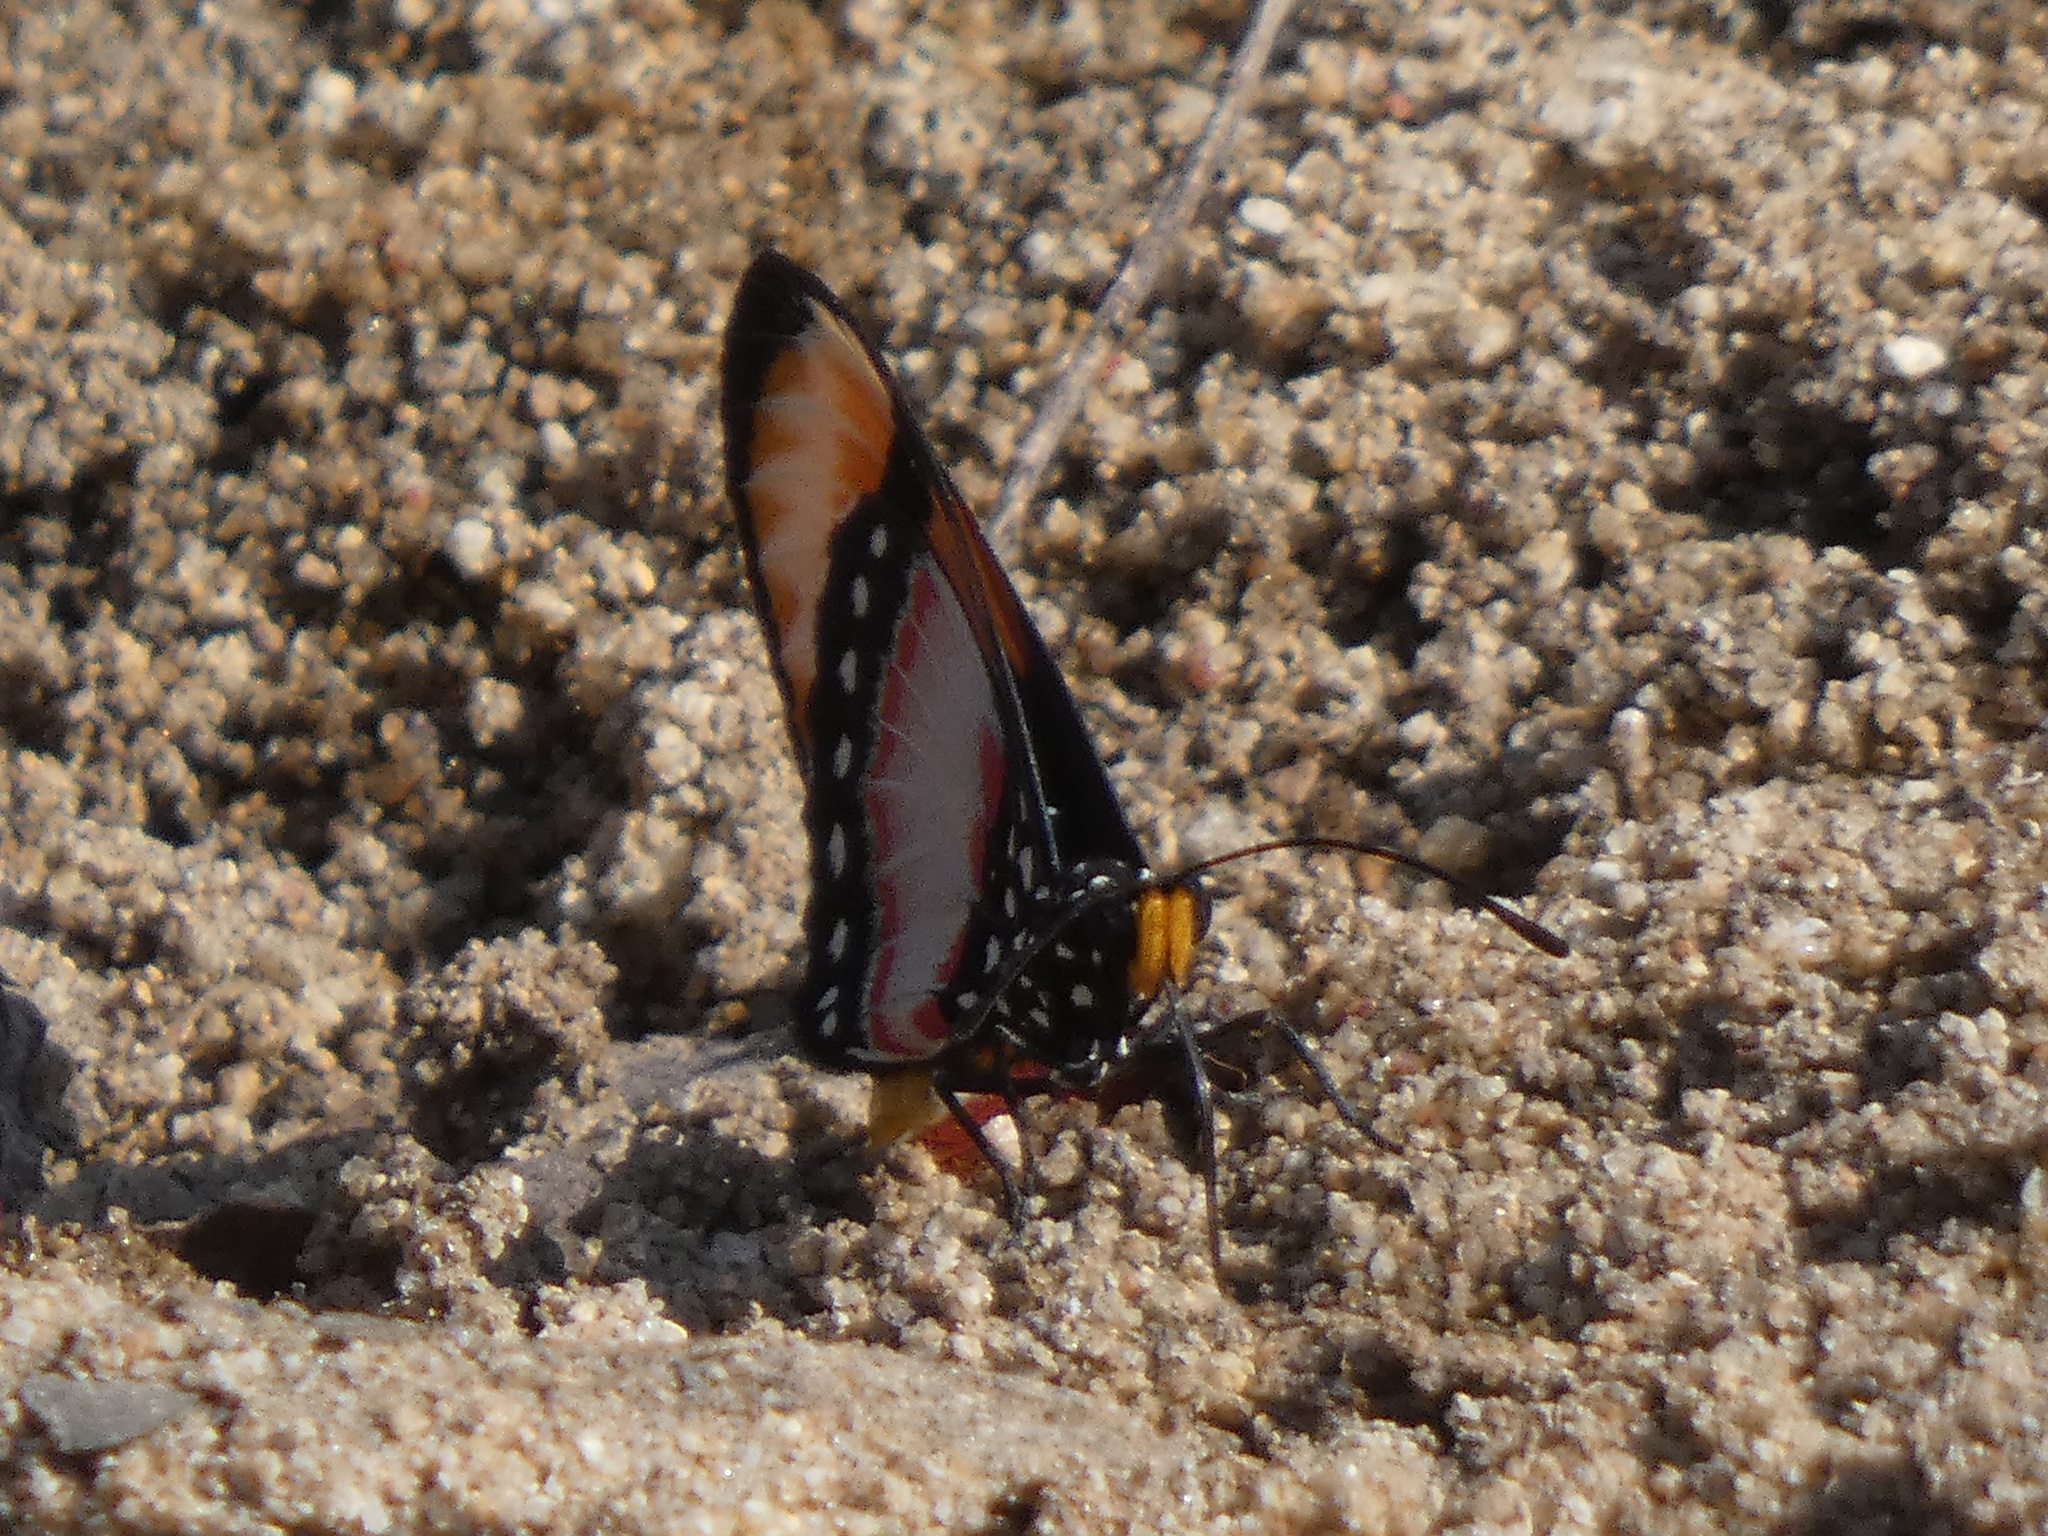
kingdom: Animalia
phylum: Arthropoda
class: Insecta
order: Lepidoptera
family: Nymphalidae
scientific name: Nymphalidae
